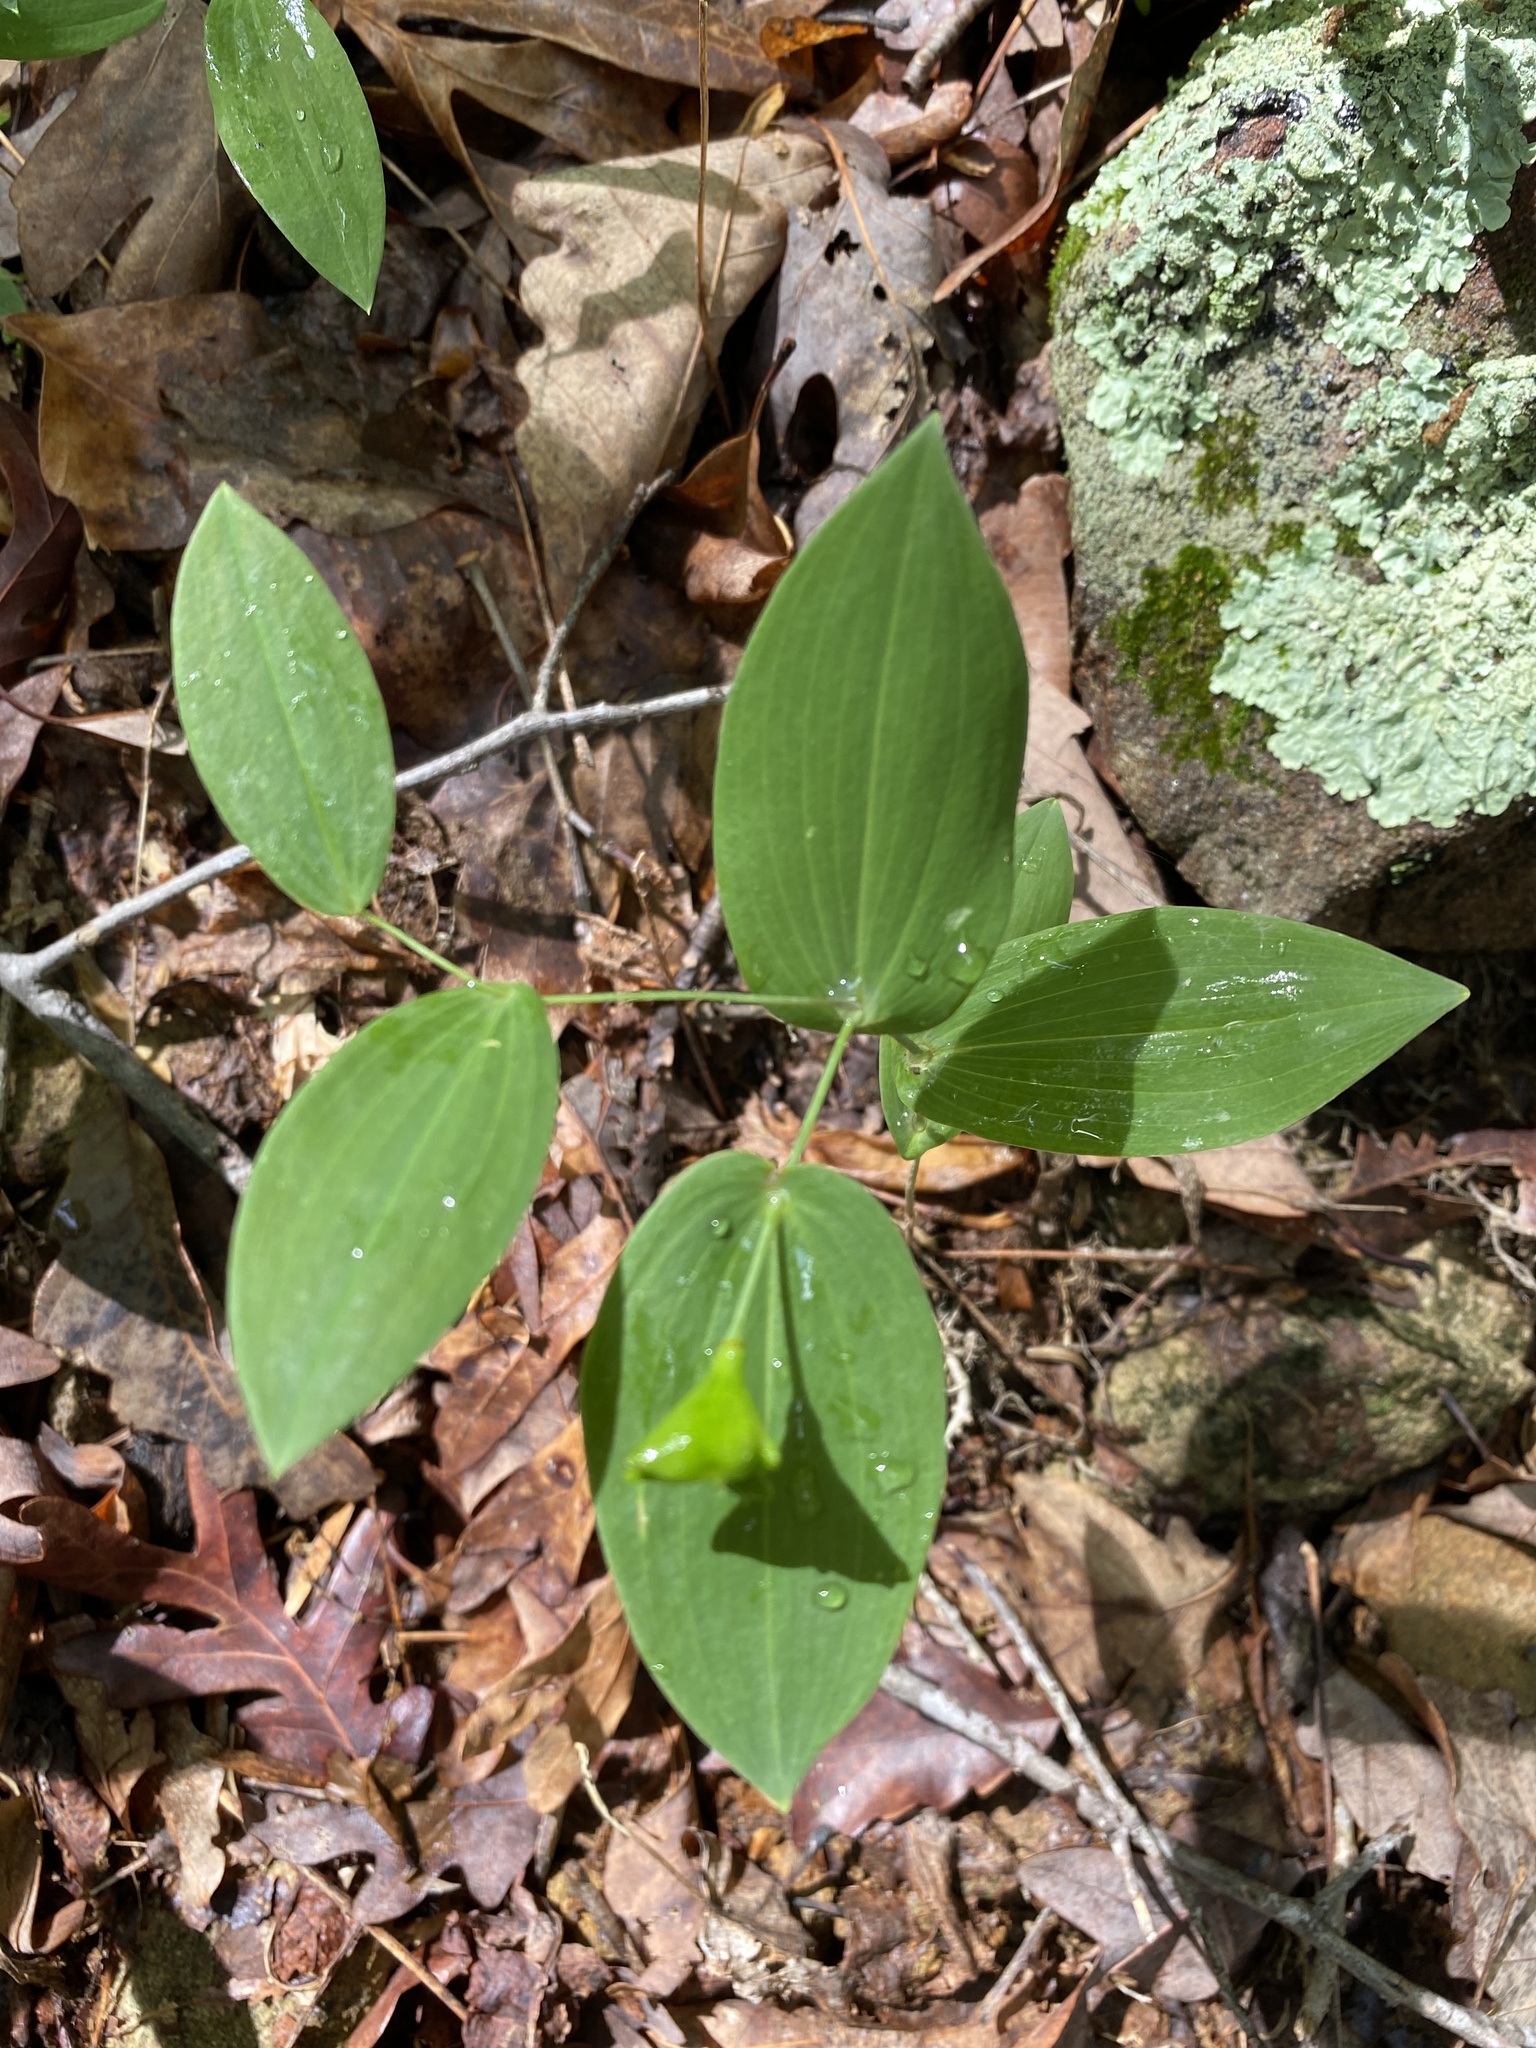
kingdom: Plantae
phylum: Tracheophyta
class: Liliopsida
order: Liliales
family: Colchicaceae
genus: Uvularia
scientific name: Uvularia perfoliata
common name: Perfoliate bellwort
